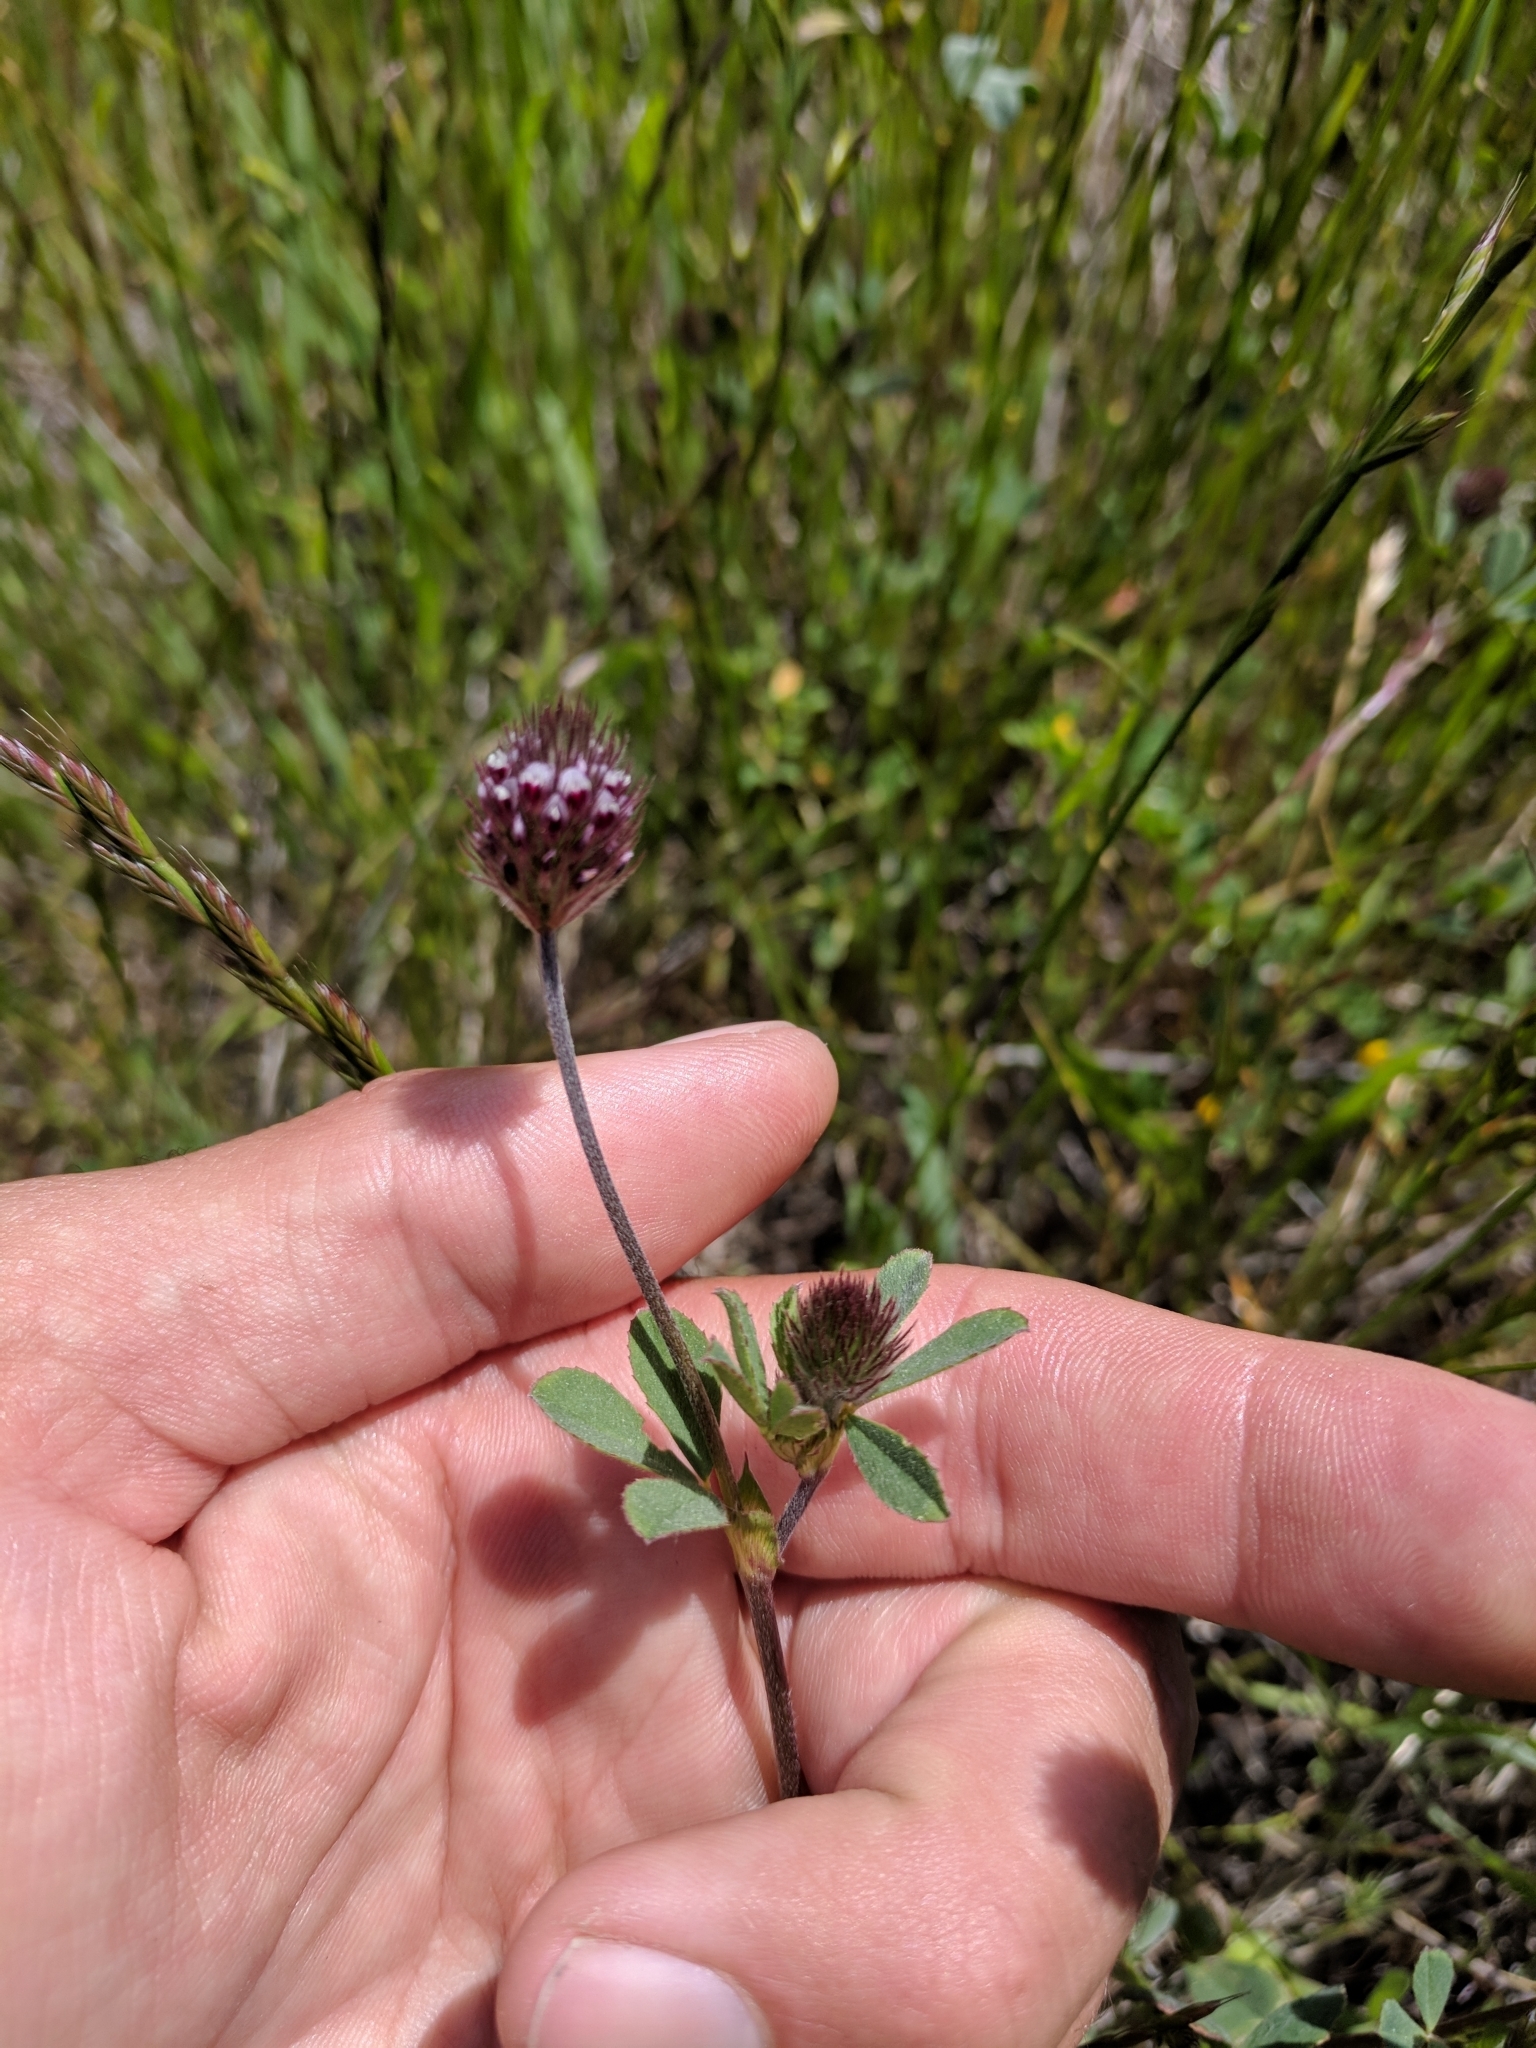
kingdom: Plantae
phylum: Tracheophyta
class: Magnoliopsida
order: Fabales
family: Fabaceae
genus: Trifolium
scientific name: Trifolium albopurpureum
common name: Rancheria clover
